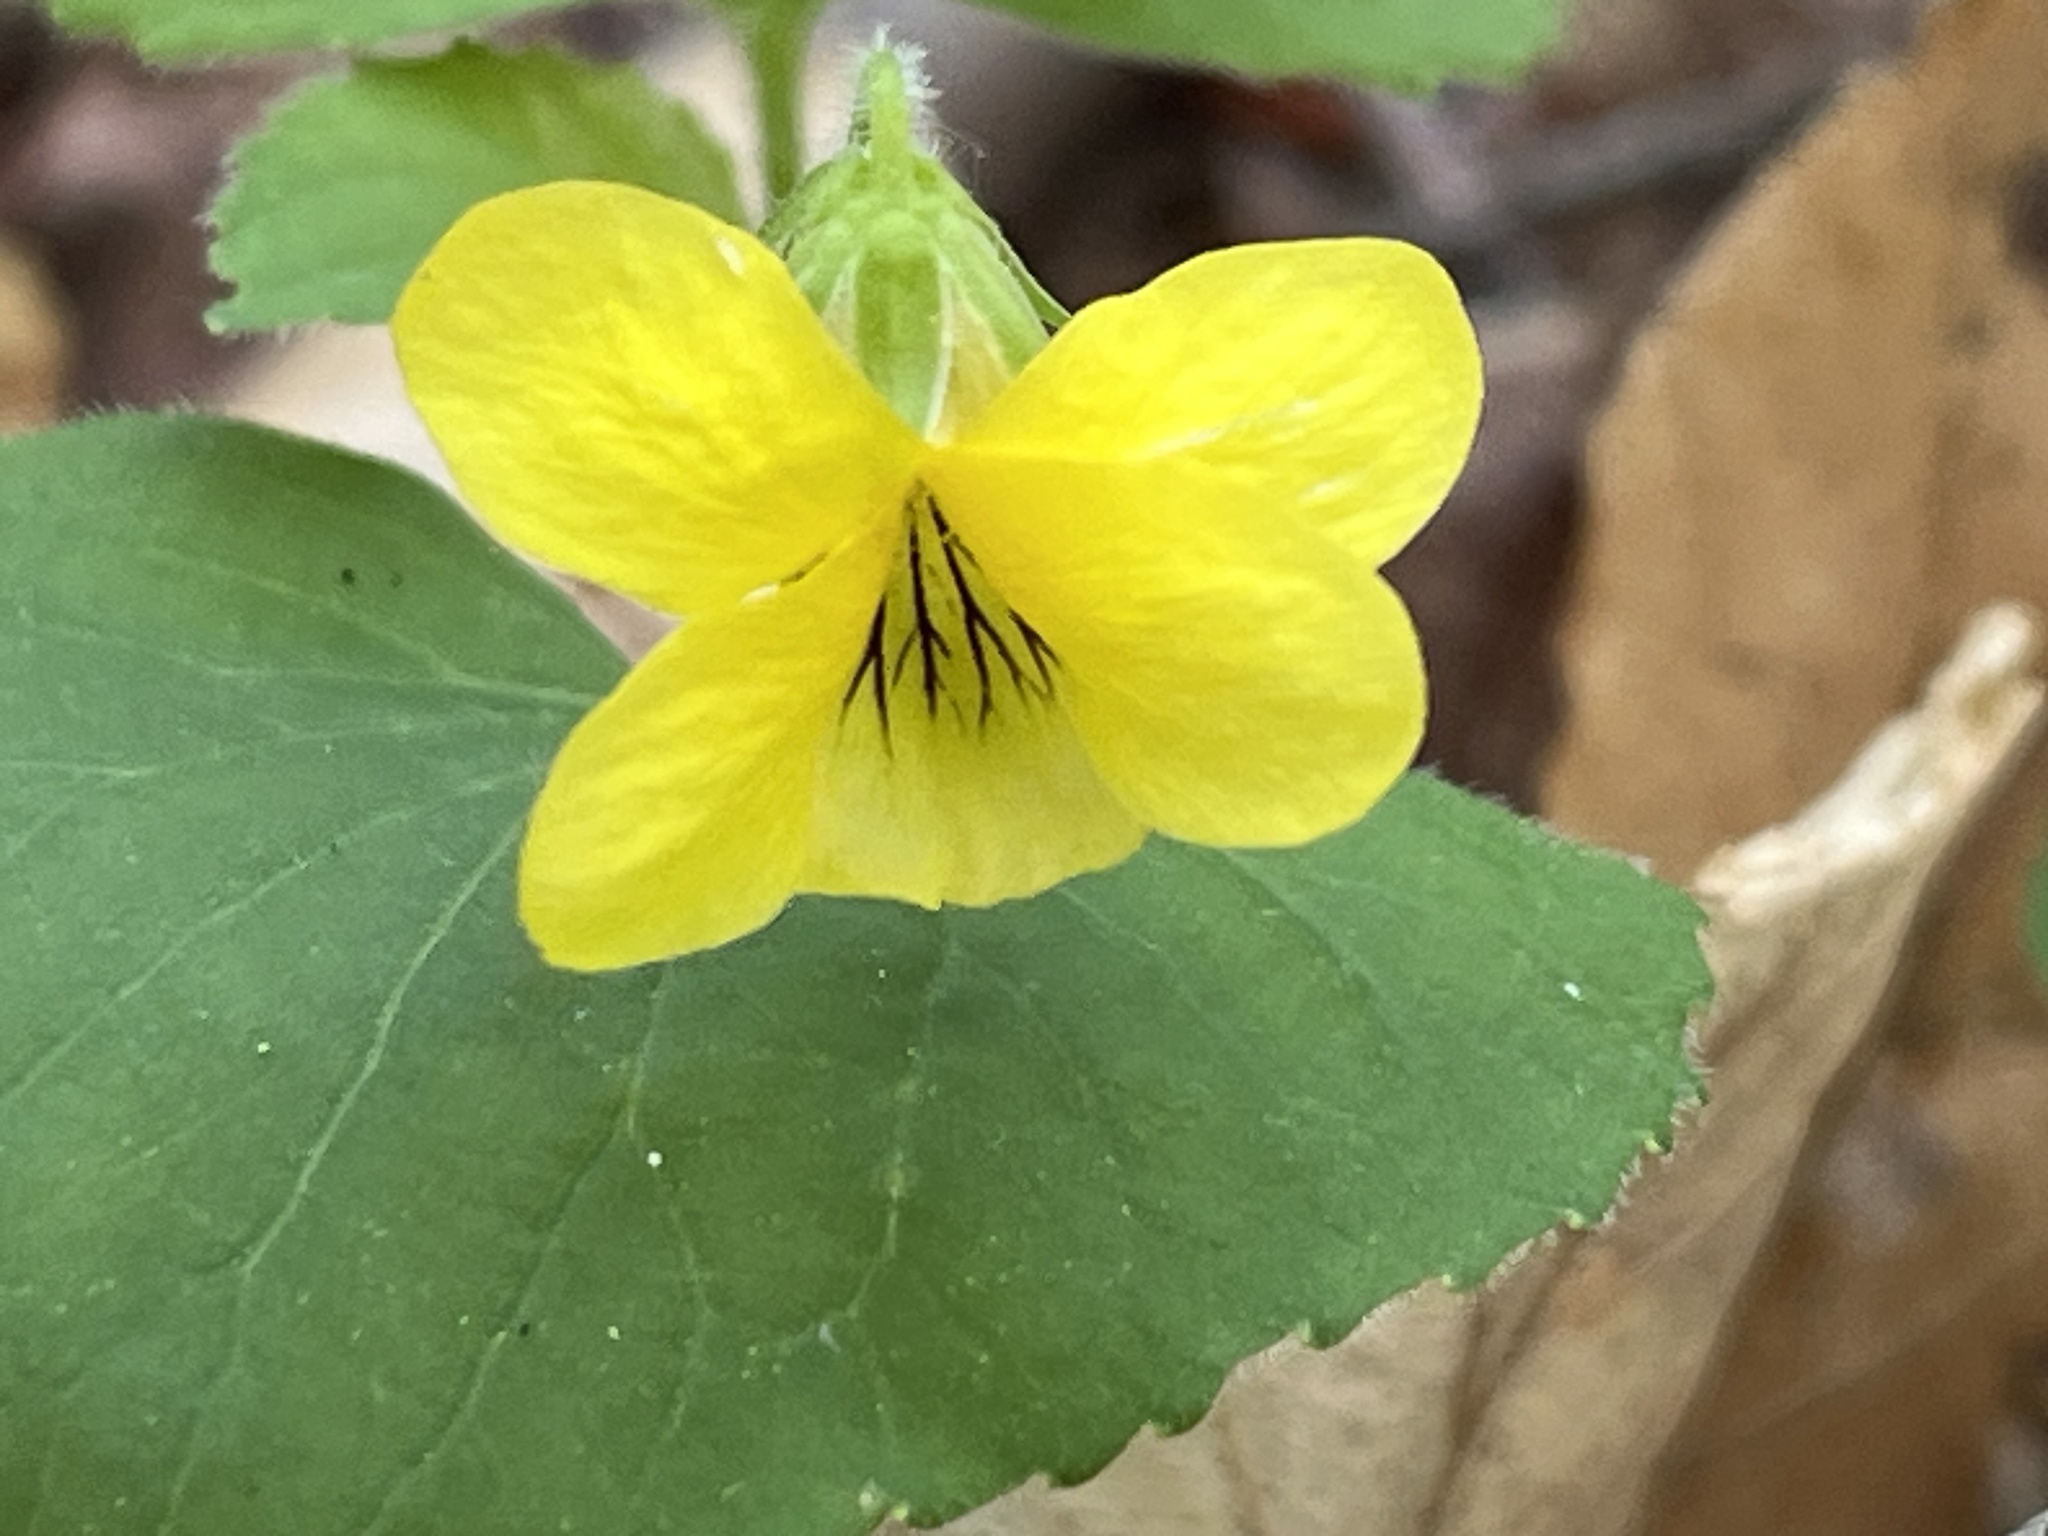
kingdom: Plantae
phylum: Tracheophyta
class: Magnoliopsida
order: Malpighiales
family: Violaceae
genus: Viola
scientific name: Viola eriocarpa
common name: Smooth yellow violet
